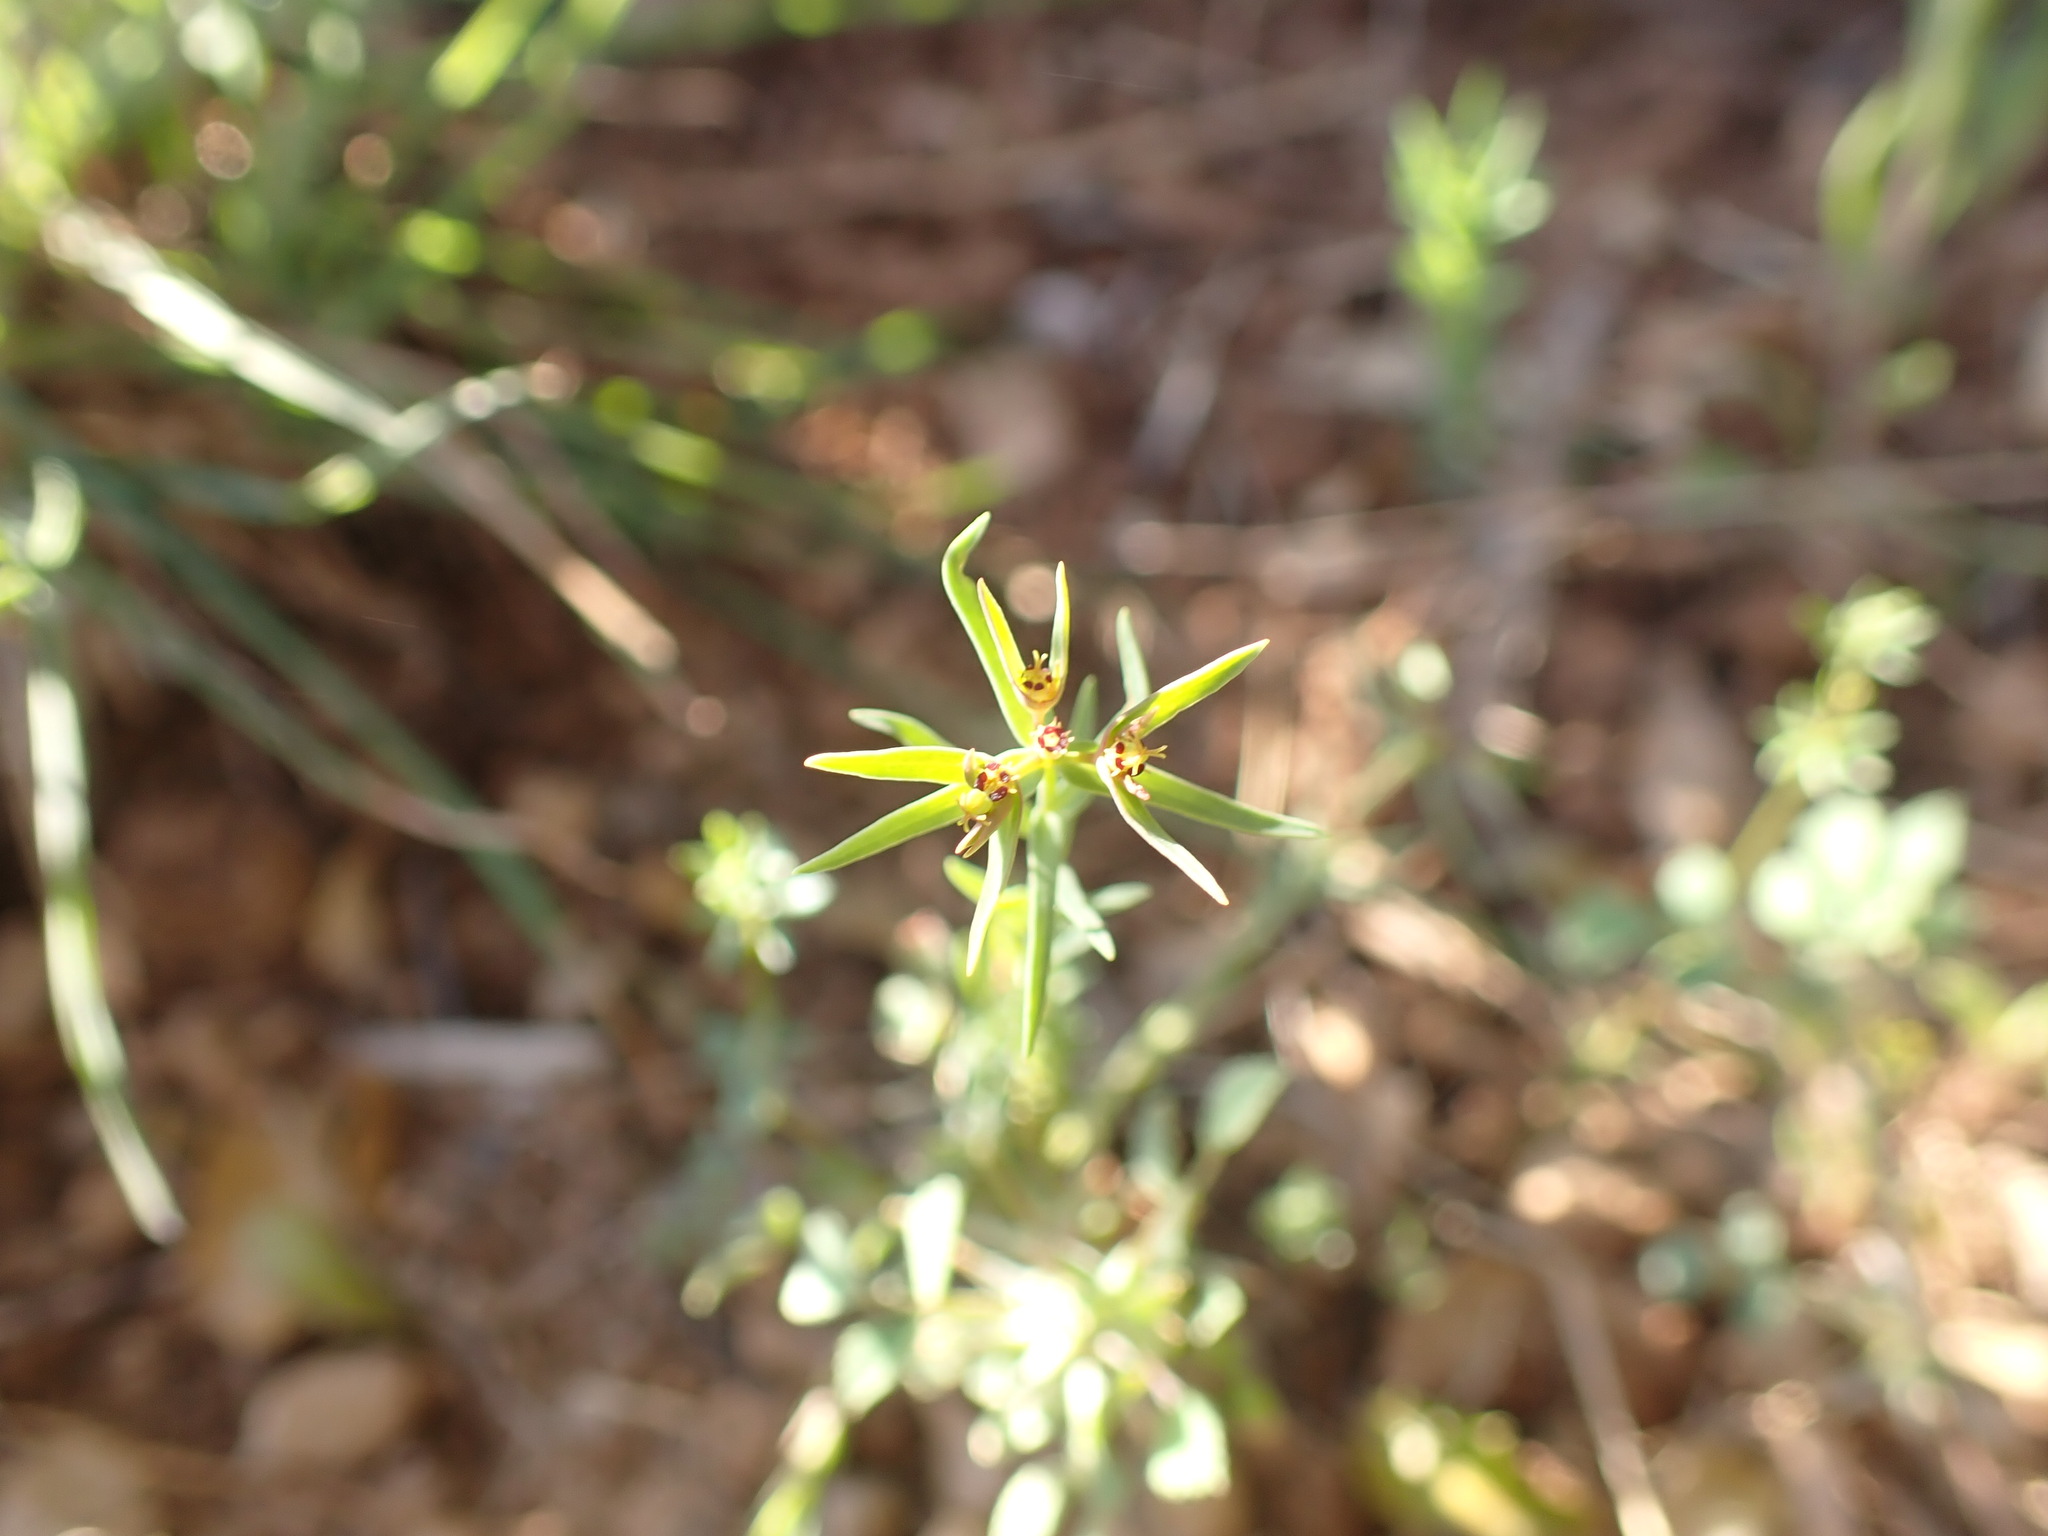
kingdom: Plantae
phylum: Tracheophyta
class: Magnoliopsida
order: Malpighiales
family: Euphorbiaceae
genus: Euphorbia
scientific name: Euphorbia exigua
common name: Dwarf spurge
